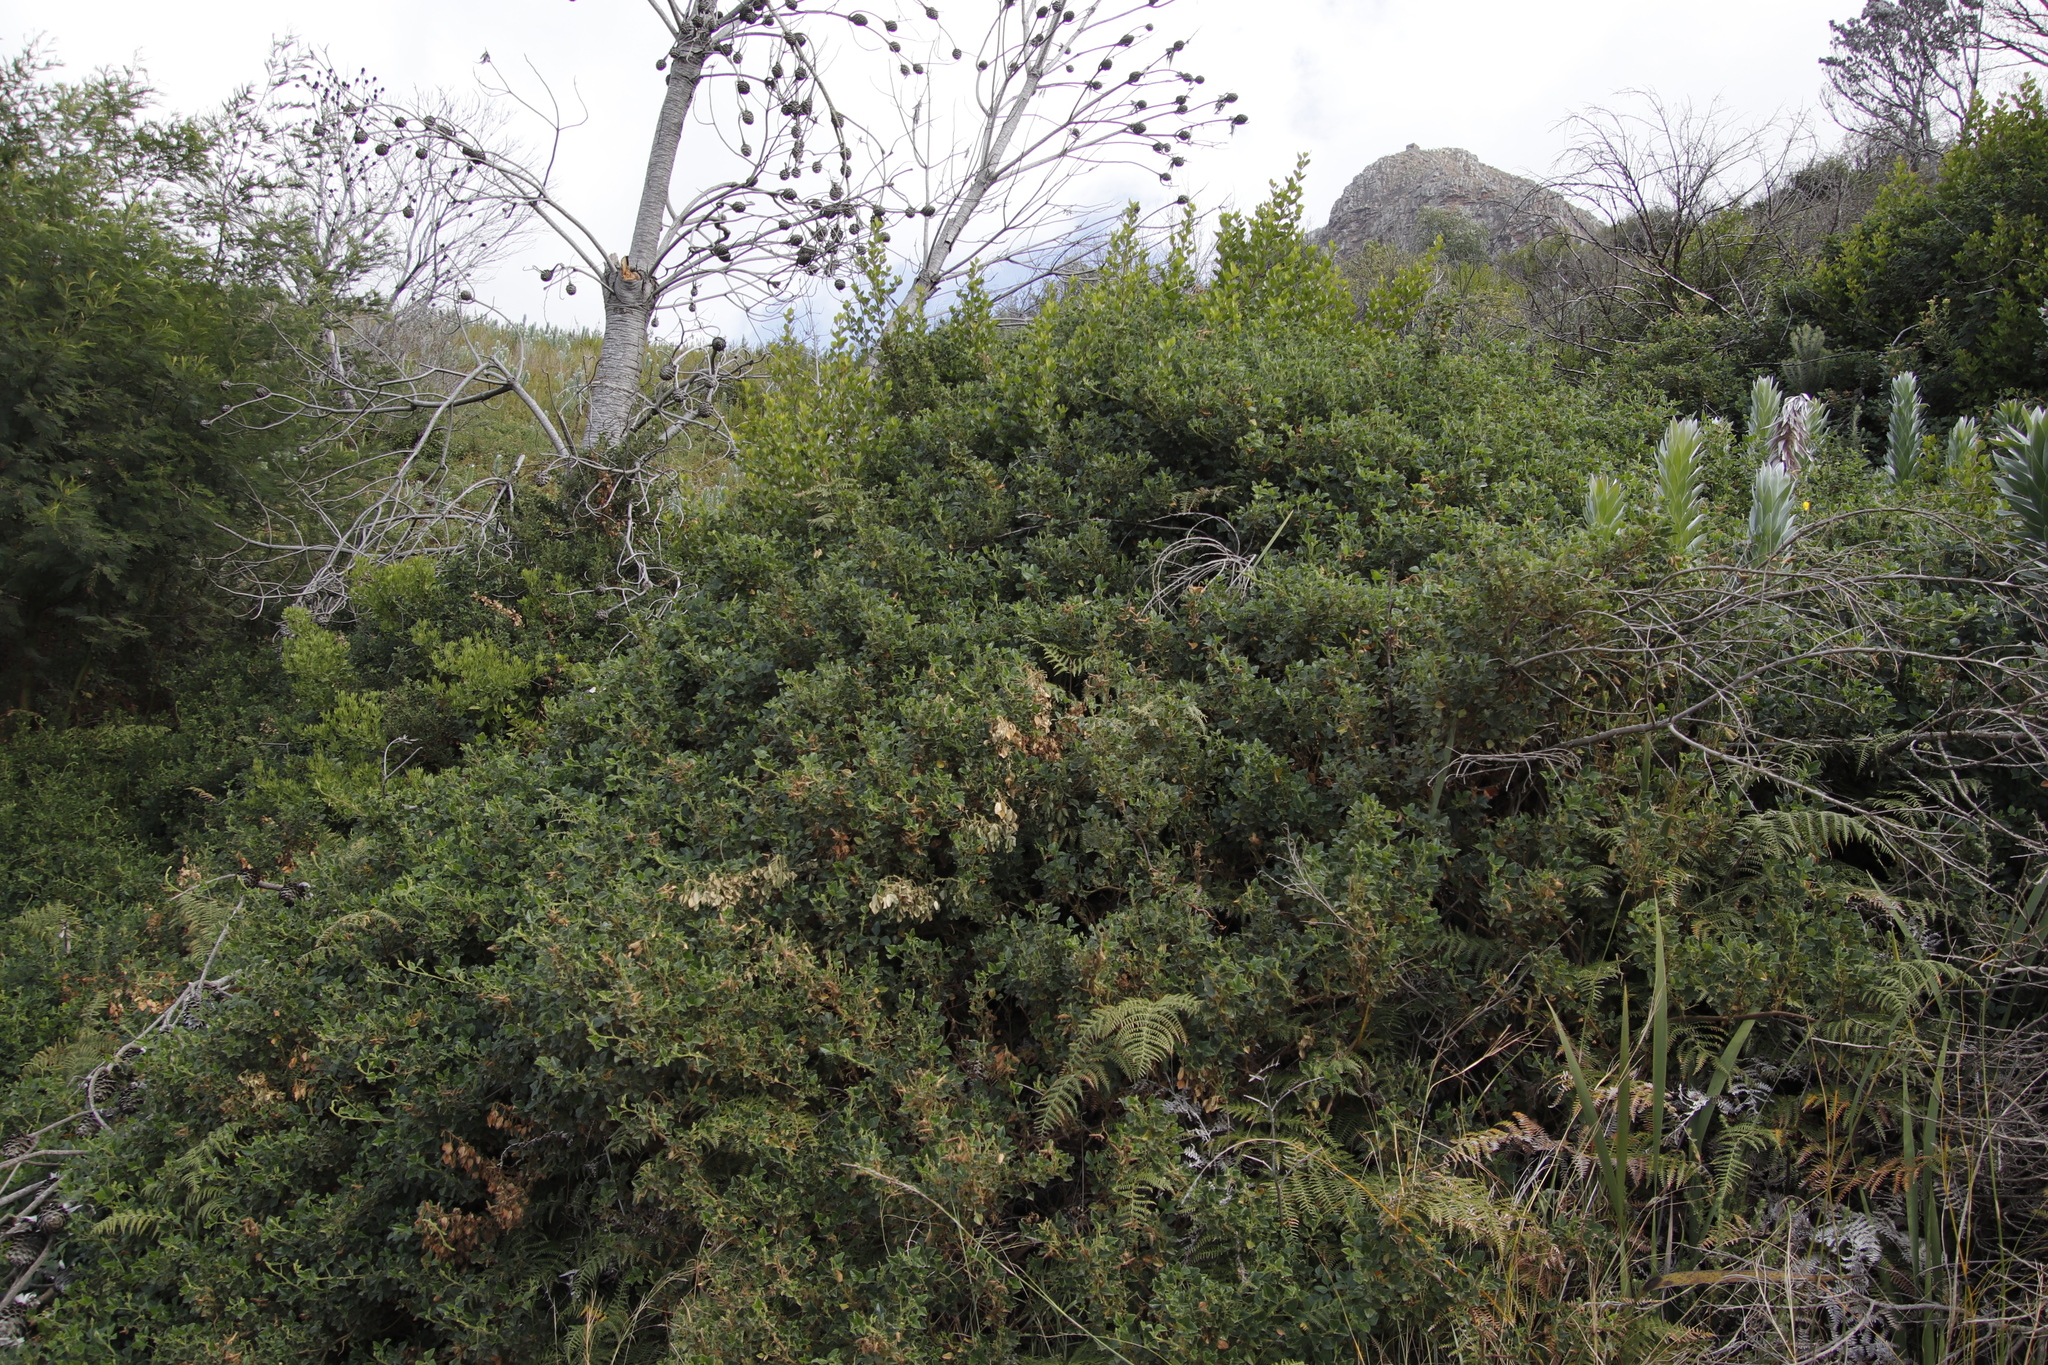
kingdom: Plantae
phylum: Tracheophyta
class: Magnoliopsida
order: Fabales
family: Fabaceae
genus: Bolusafra
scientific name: Bolusafra bituminosa
